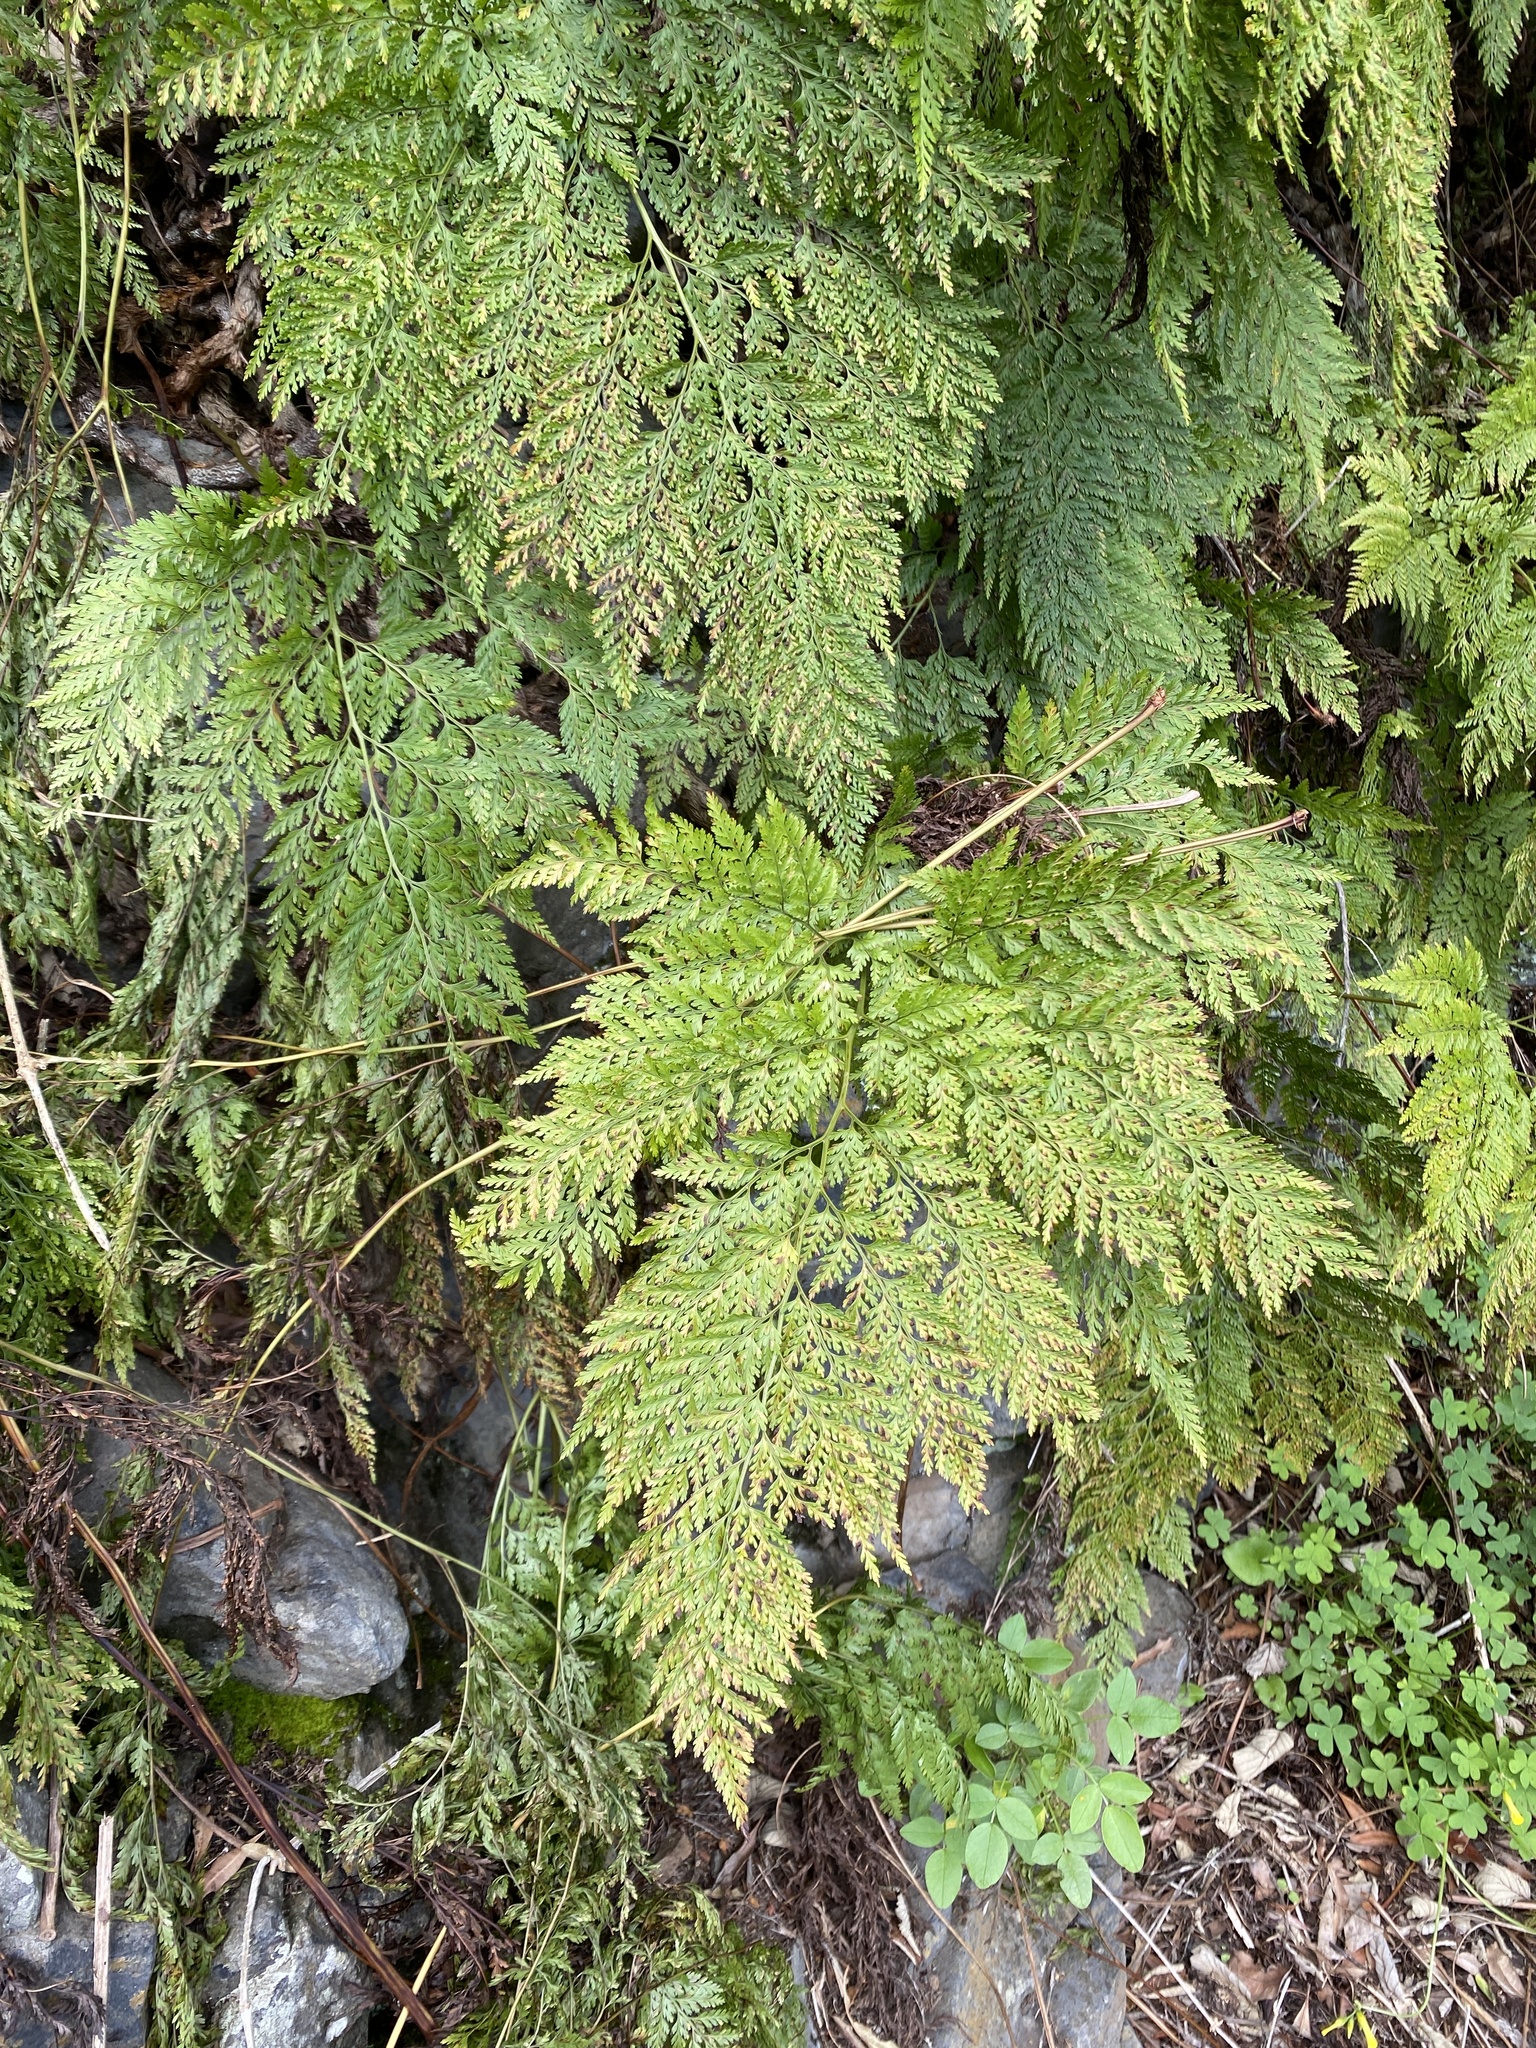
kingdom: Plantae
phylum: Tracheophyta
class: Polypodiopsida
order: Polypodiales
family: Davalliaceae
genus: Davallia
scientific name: Davallia canariensis
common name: Hare's-foot fern
